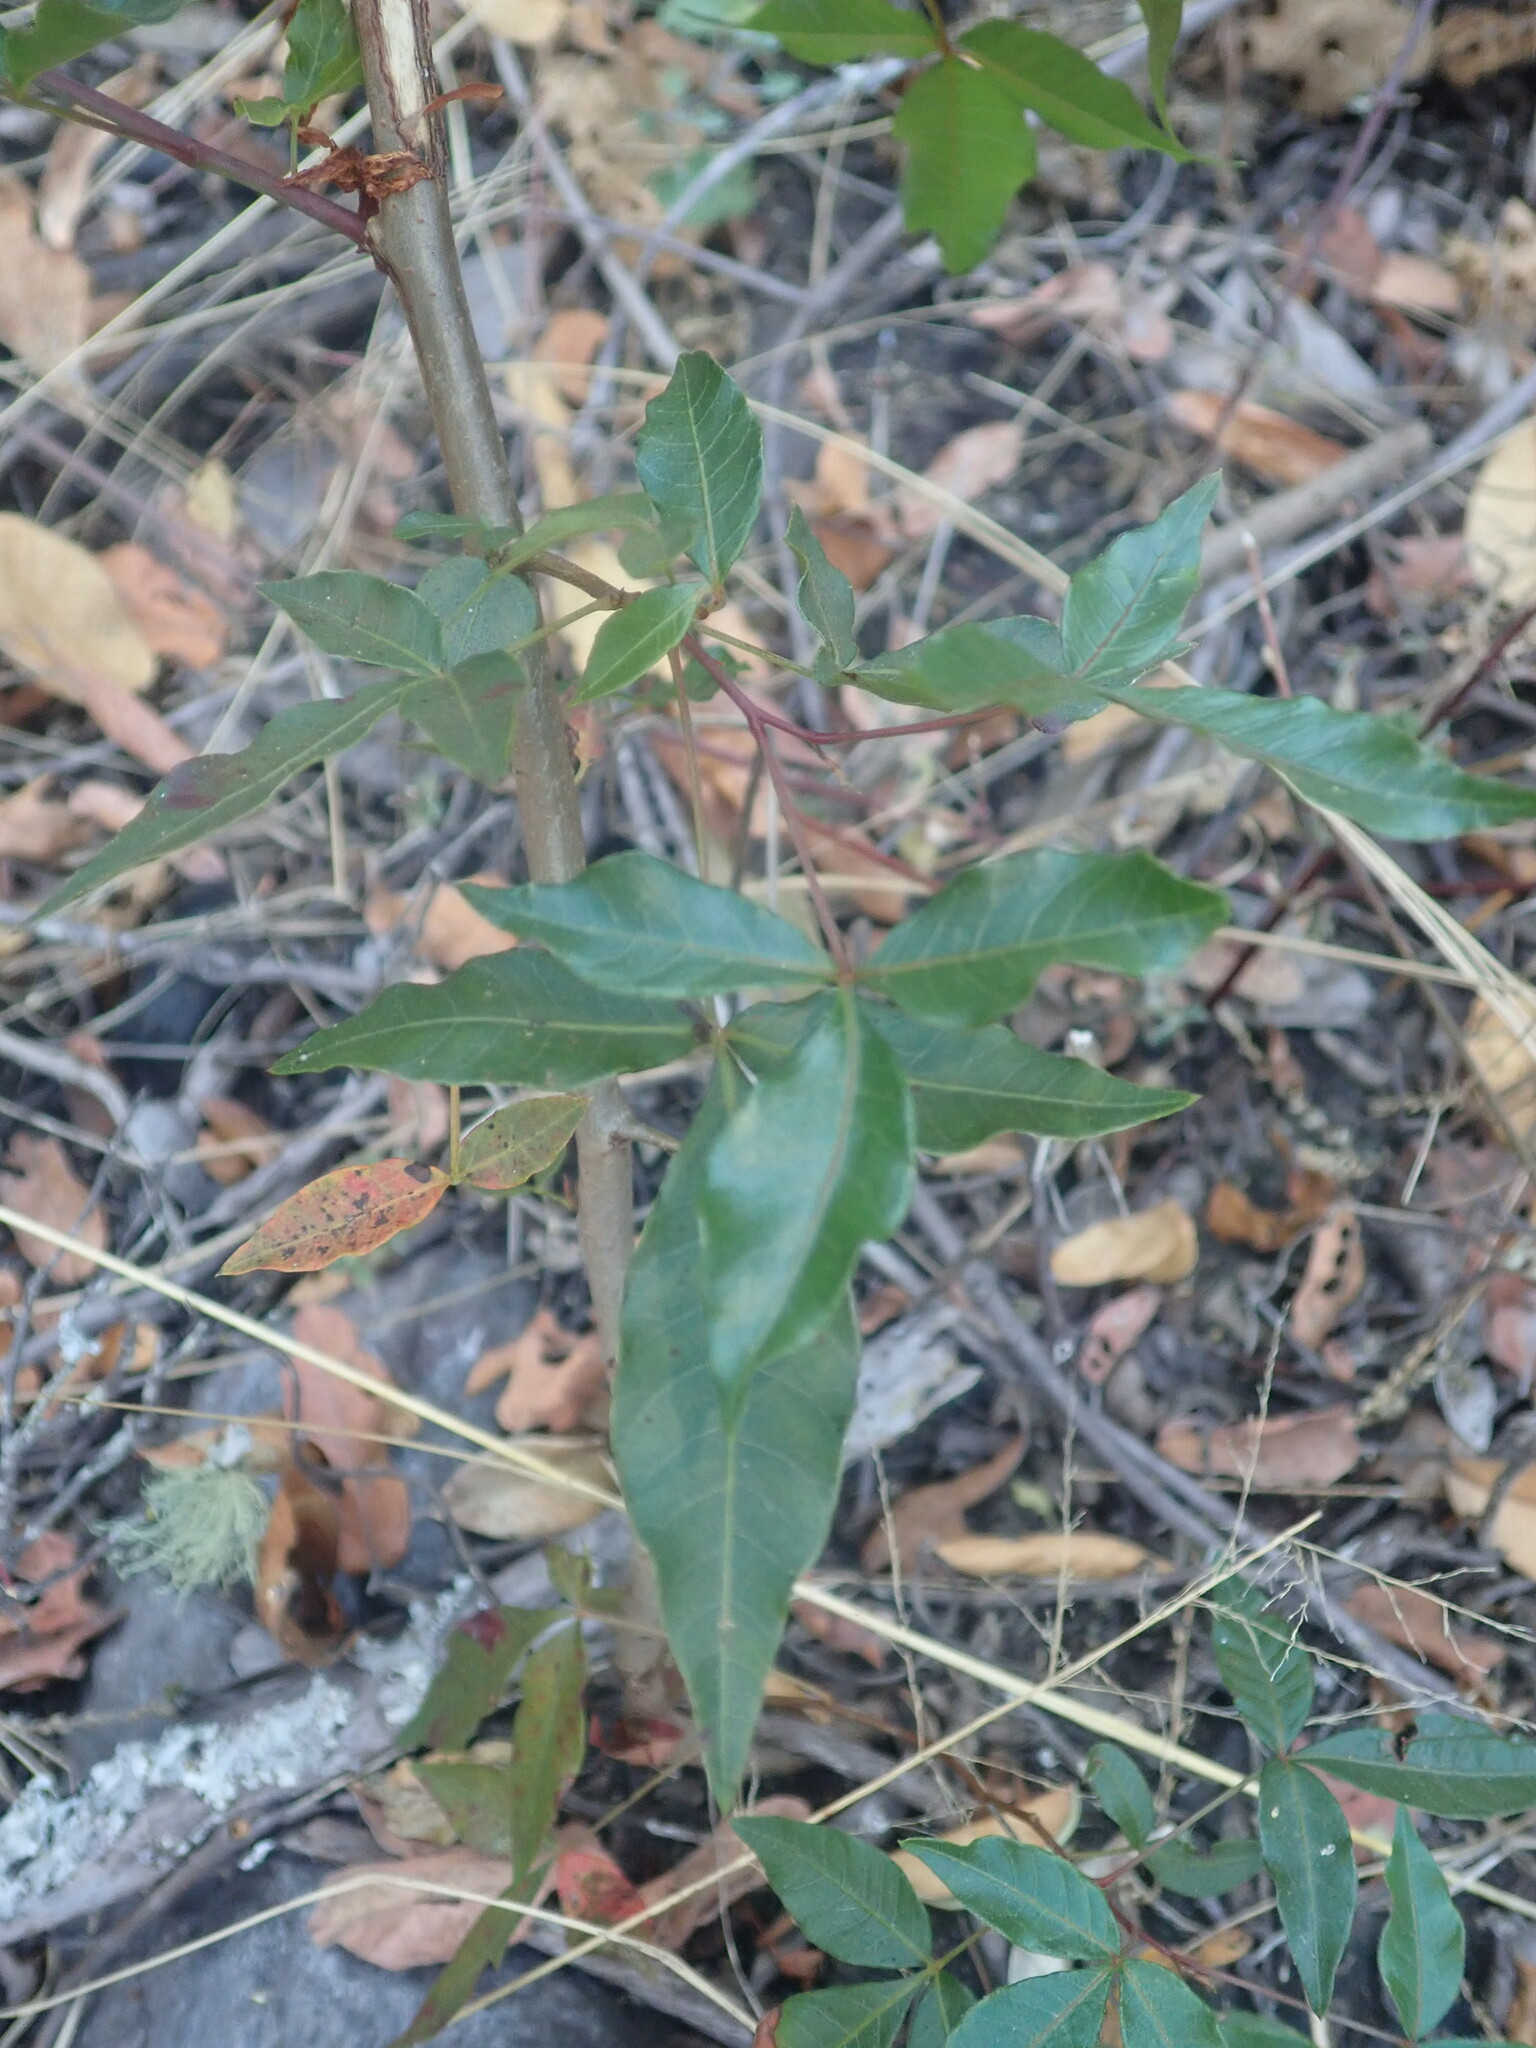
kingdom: Plantae
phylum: Tracheophyta
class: Magnoliopsida
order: Sapindales
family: Anacardiaceae
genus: Searsia
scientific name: Searsia chirindensis
